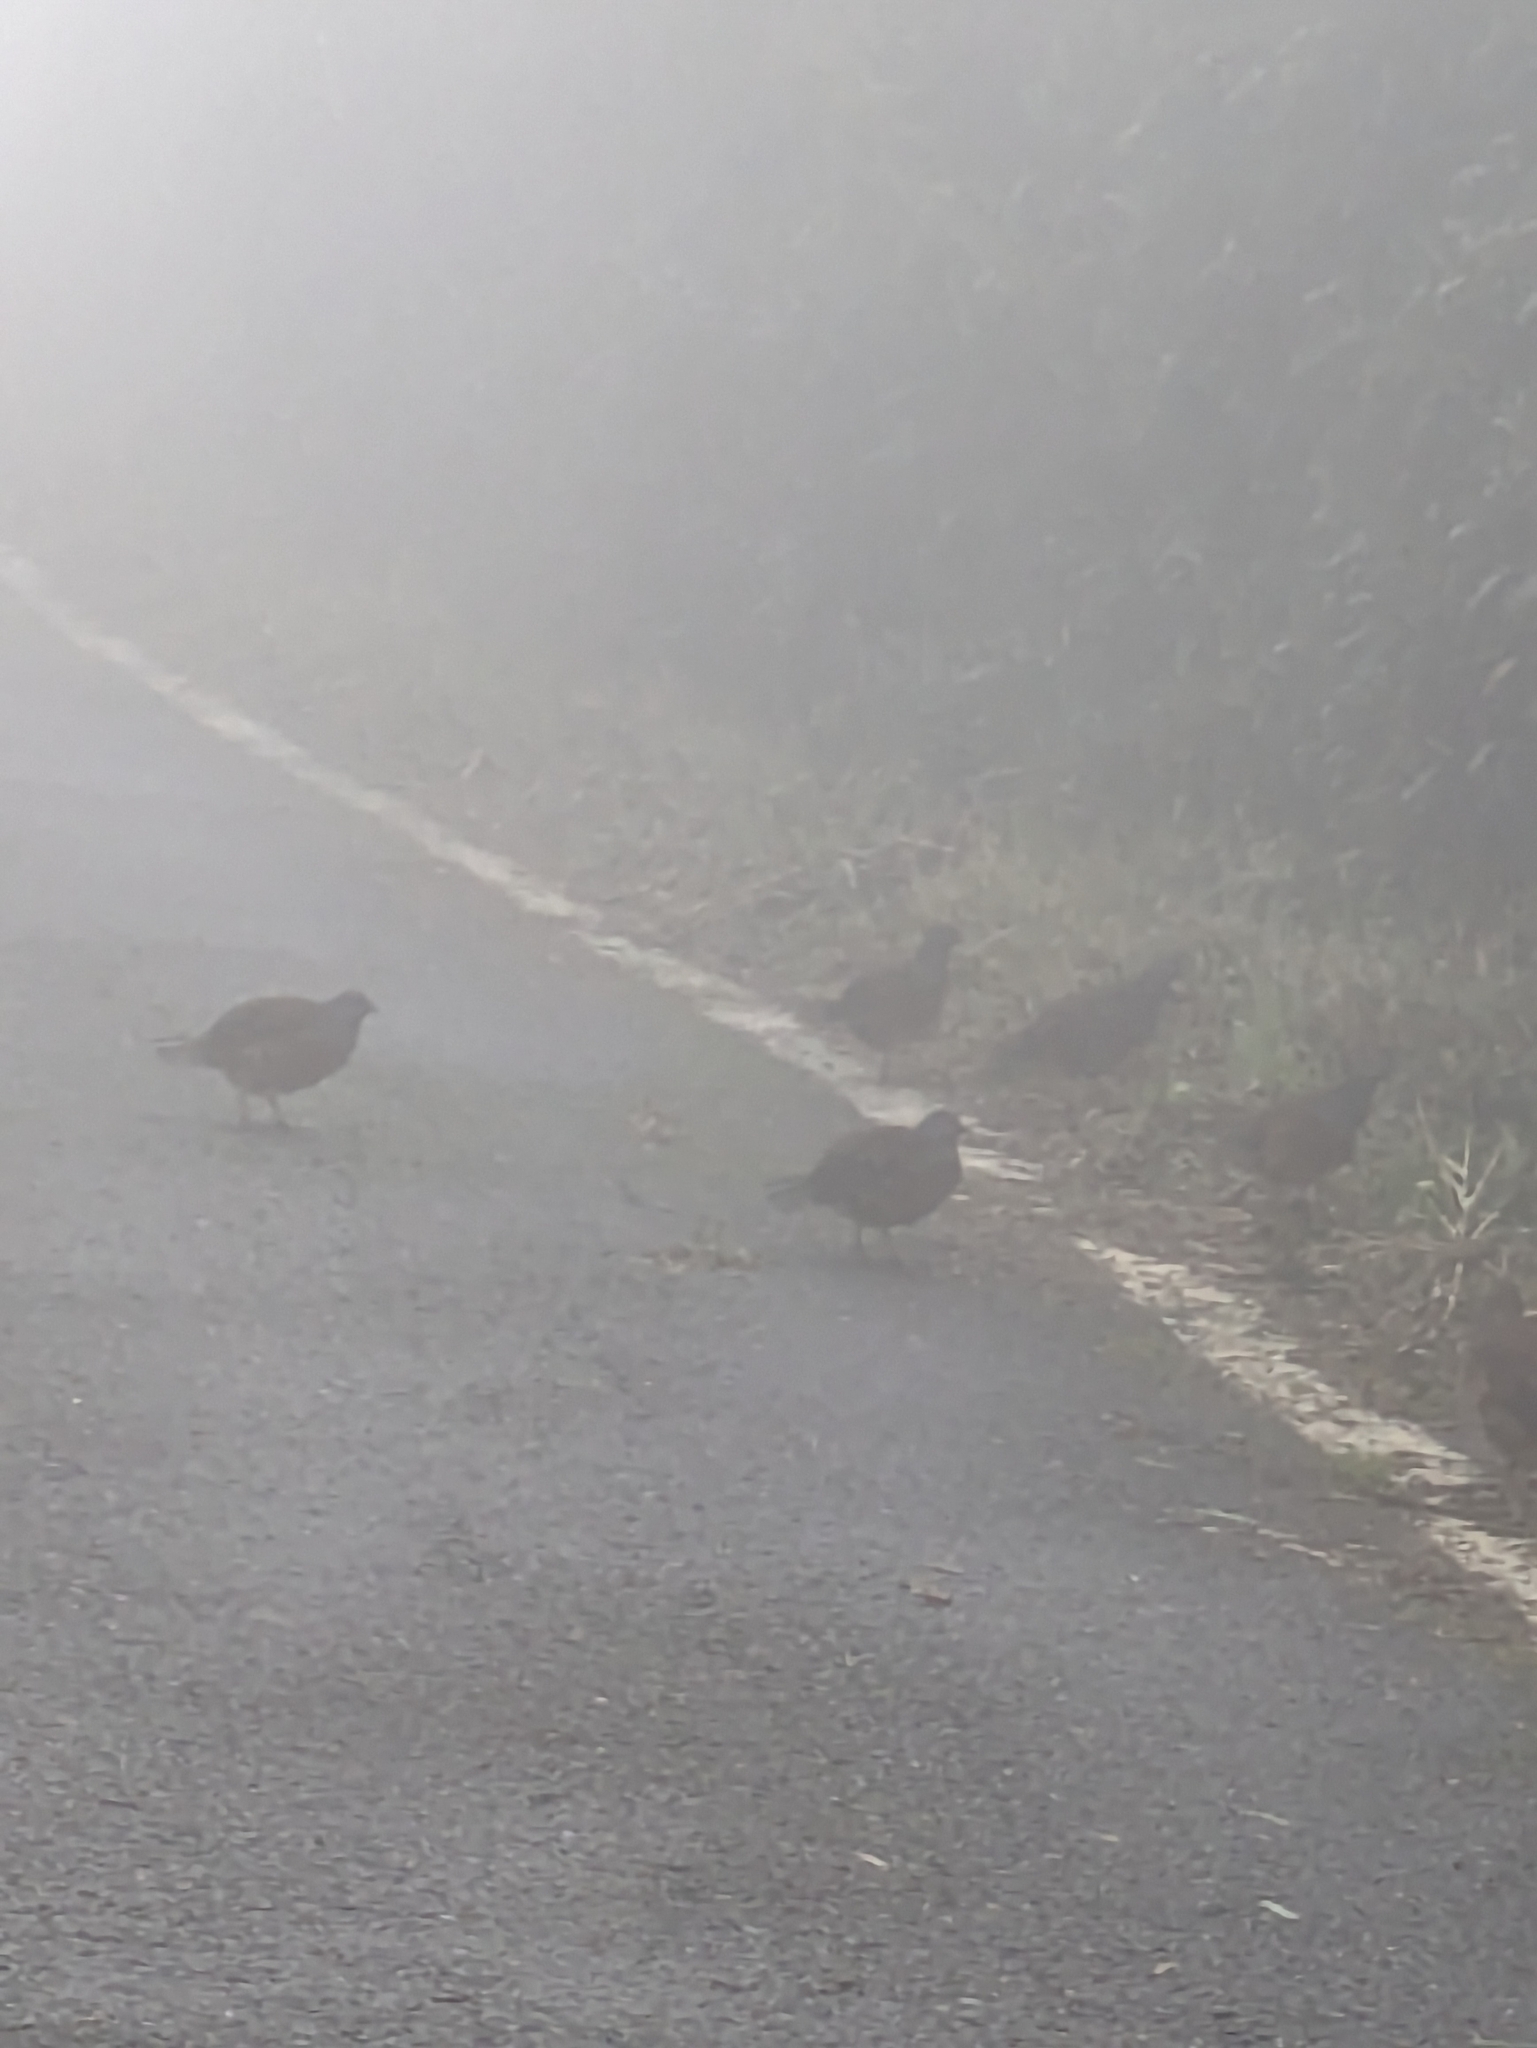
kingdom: Animalia
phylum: Chordata
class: Aves
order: Galliformes
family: Phasianidae
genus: Bambusicola
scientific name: Bambusicola sonorivox
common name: Taiwan bamboo-partridge
